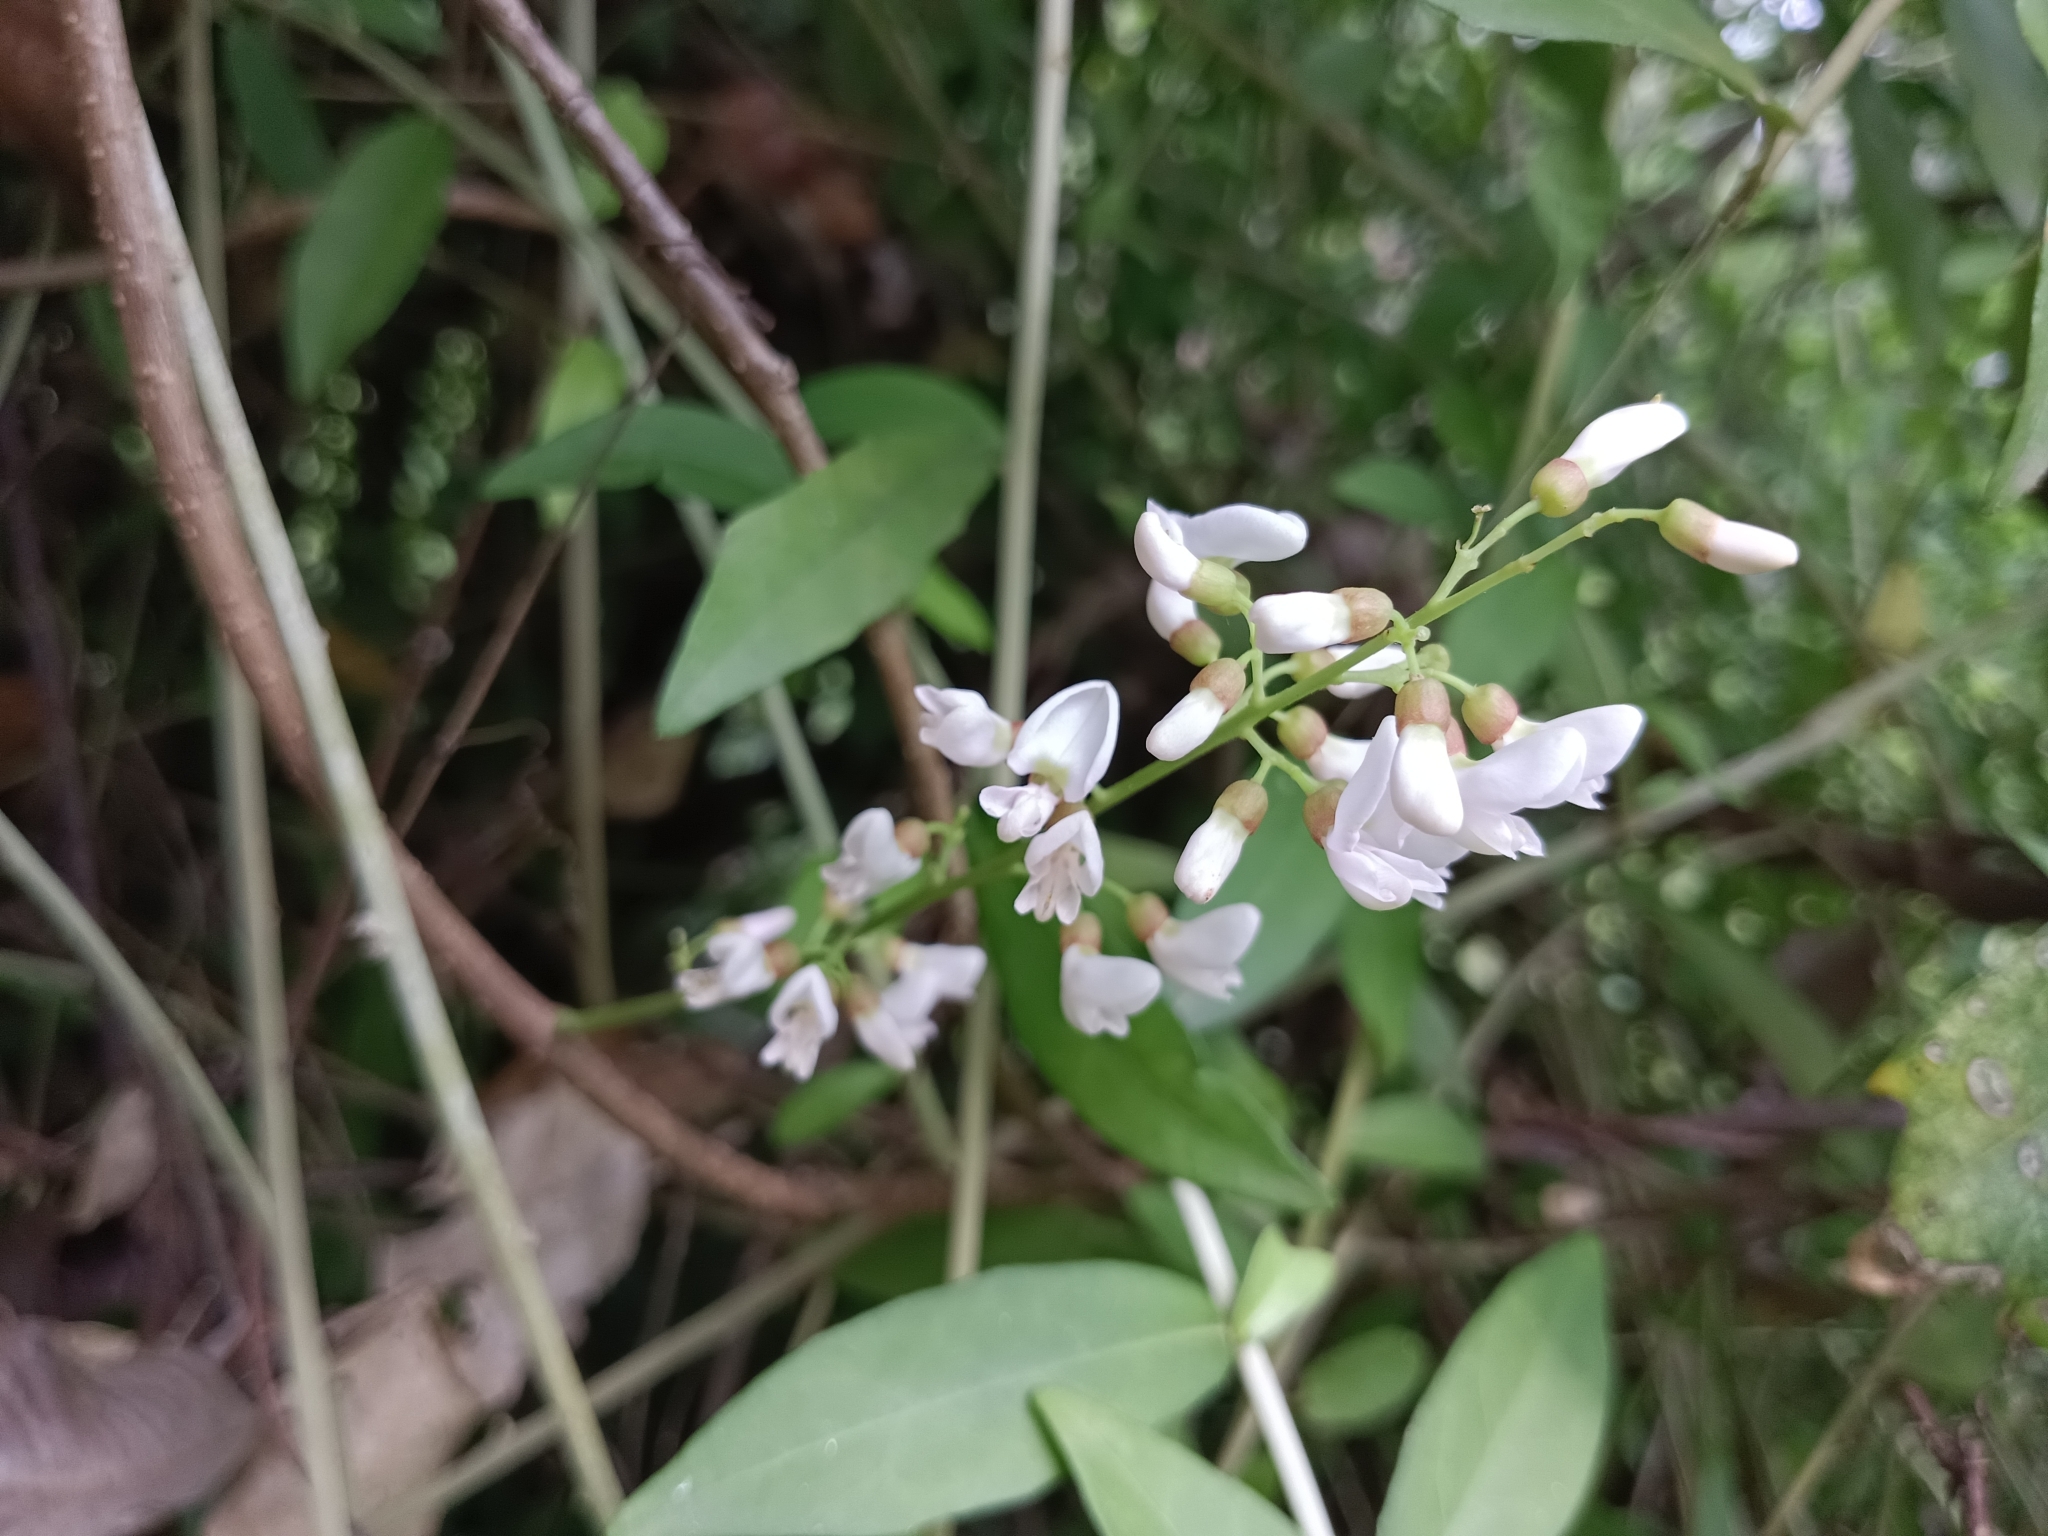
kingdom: Plantae
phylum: Tracheophyta
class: Magnoliopsida
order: Fabales
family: Fabaceae
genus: Derris
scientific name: Derris trifoliata
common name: Three-leaf derris
